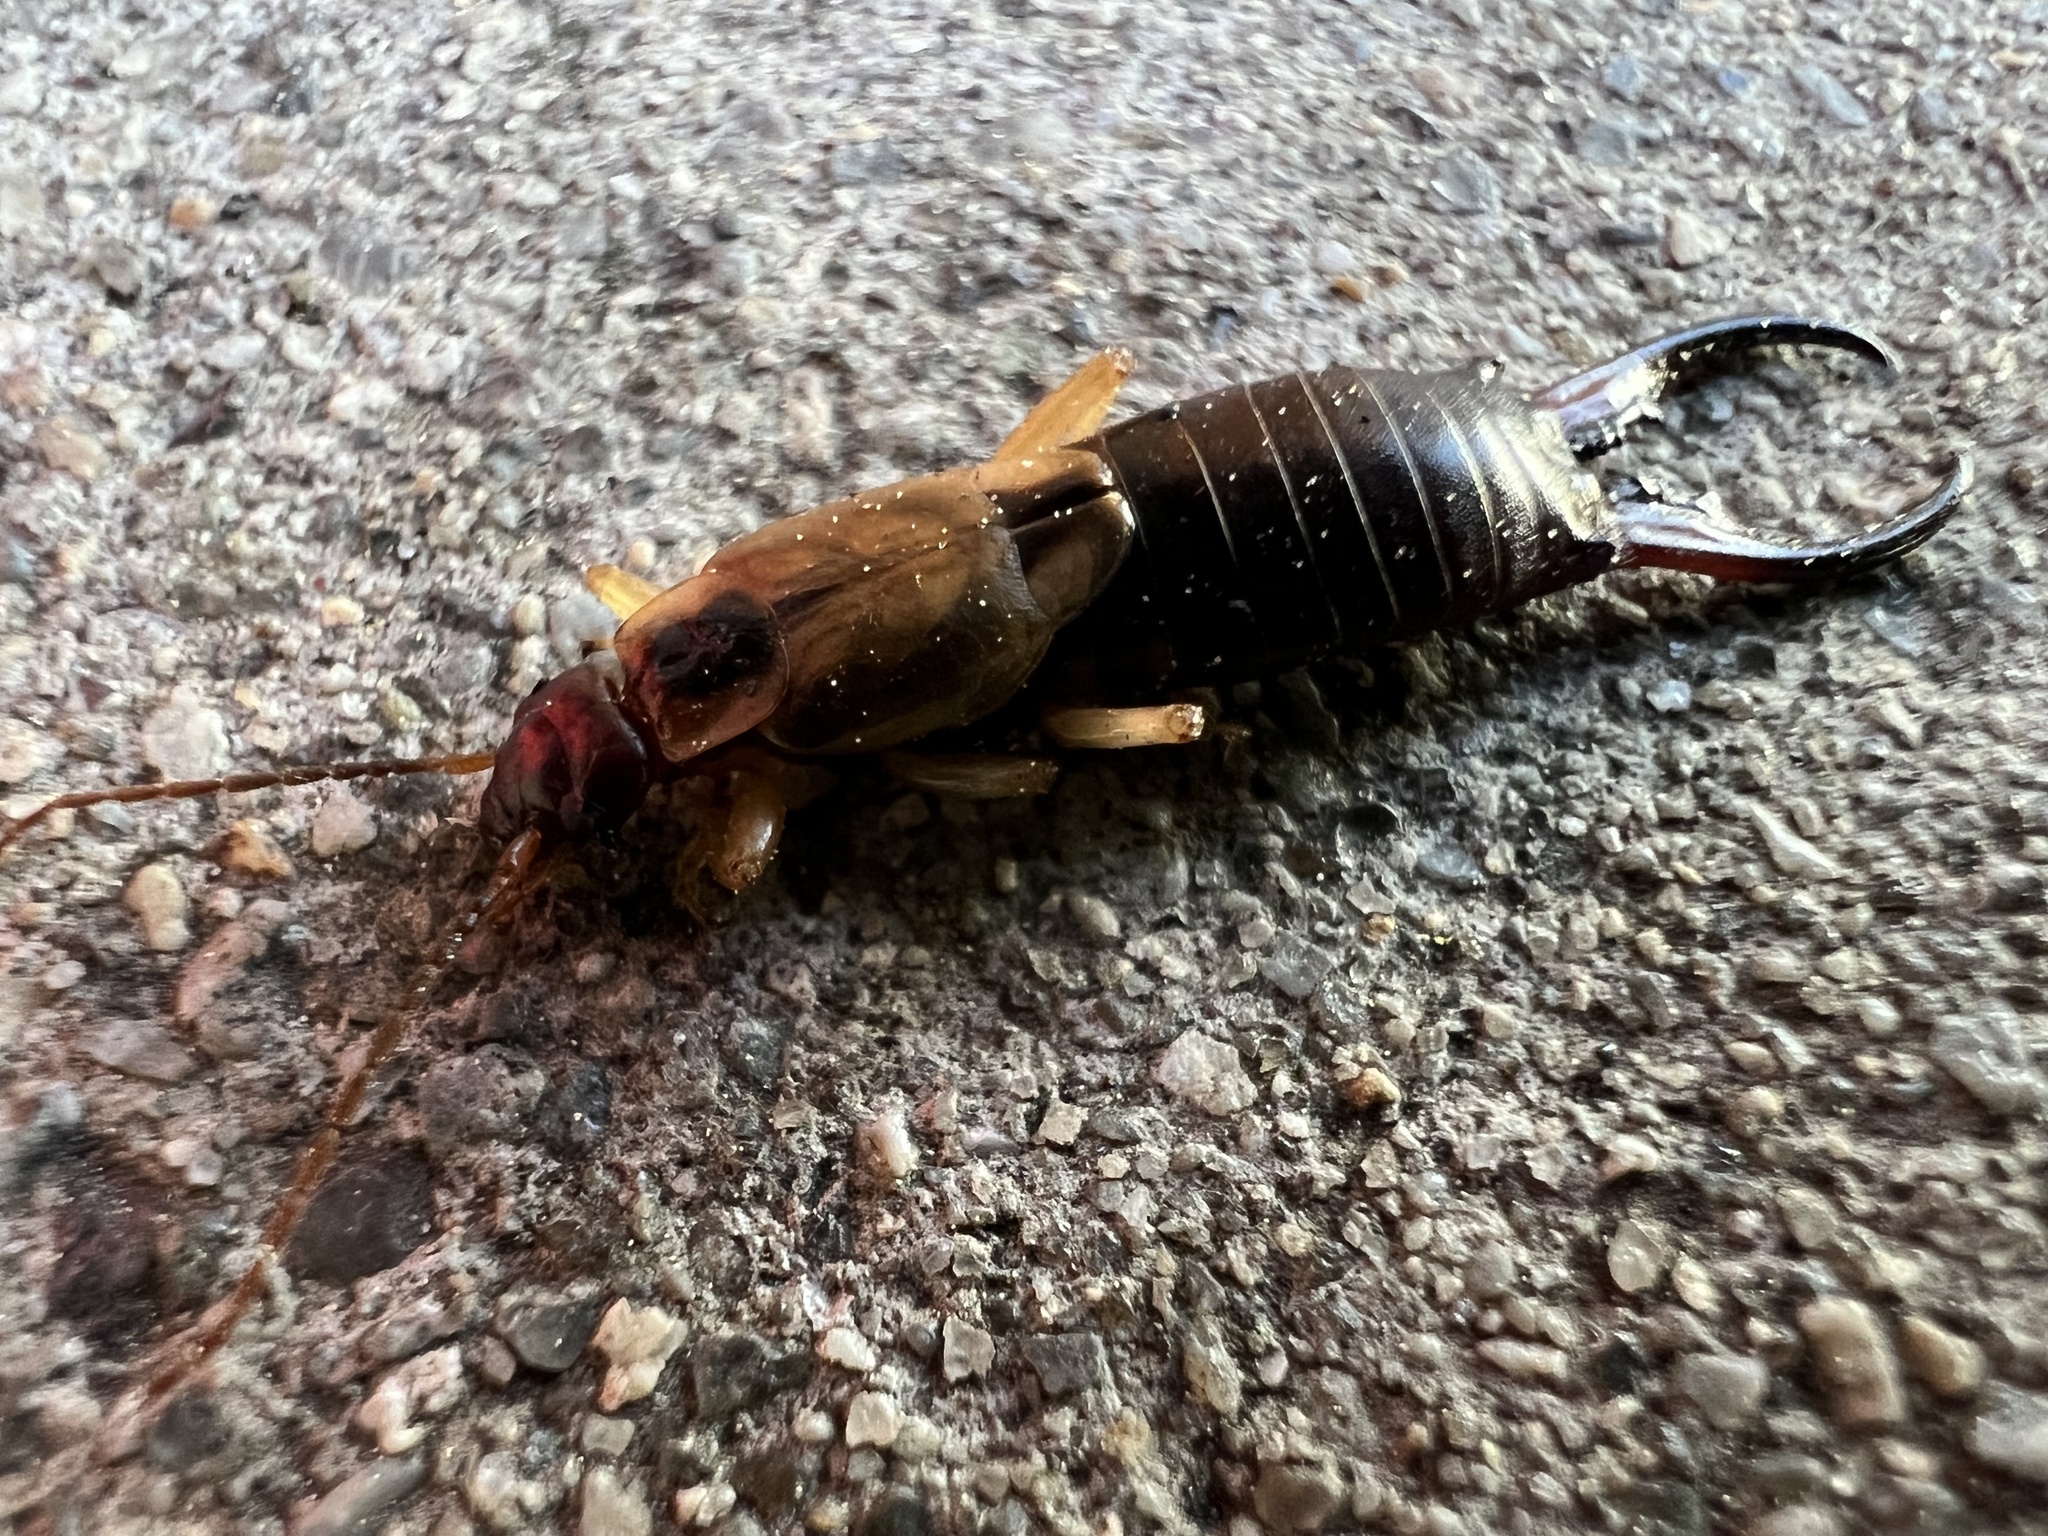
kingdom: Animalia
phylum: Arthropoda
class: Insecta
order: Dermaptera
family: Forficulidae
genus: Forficula
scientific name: Forficula
